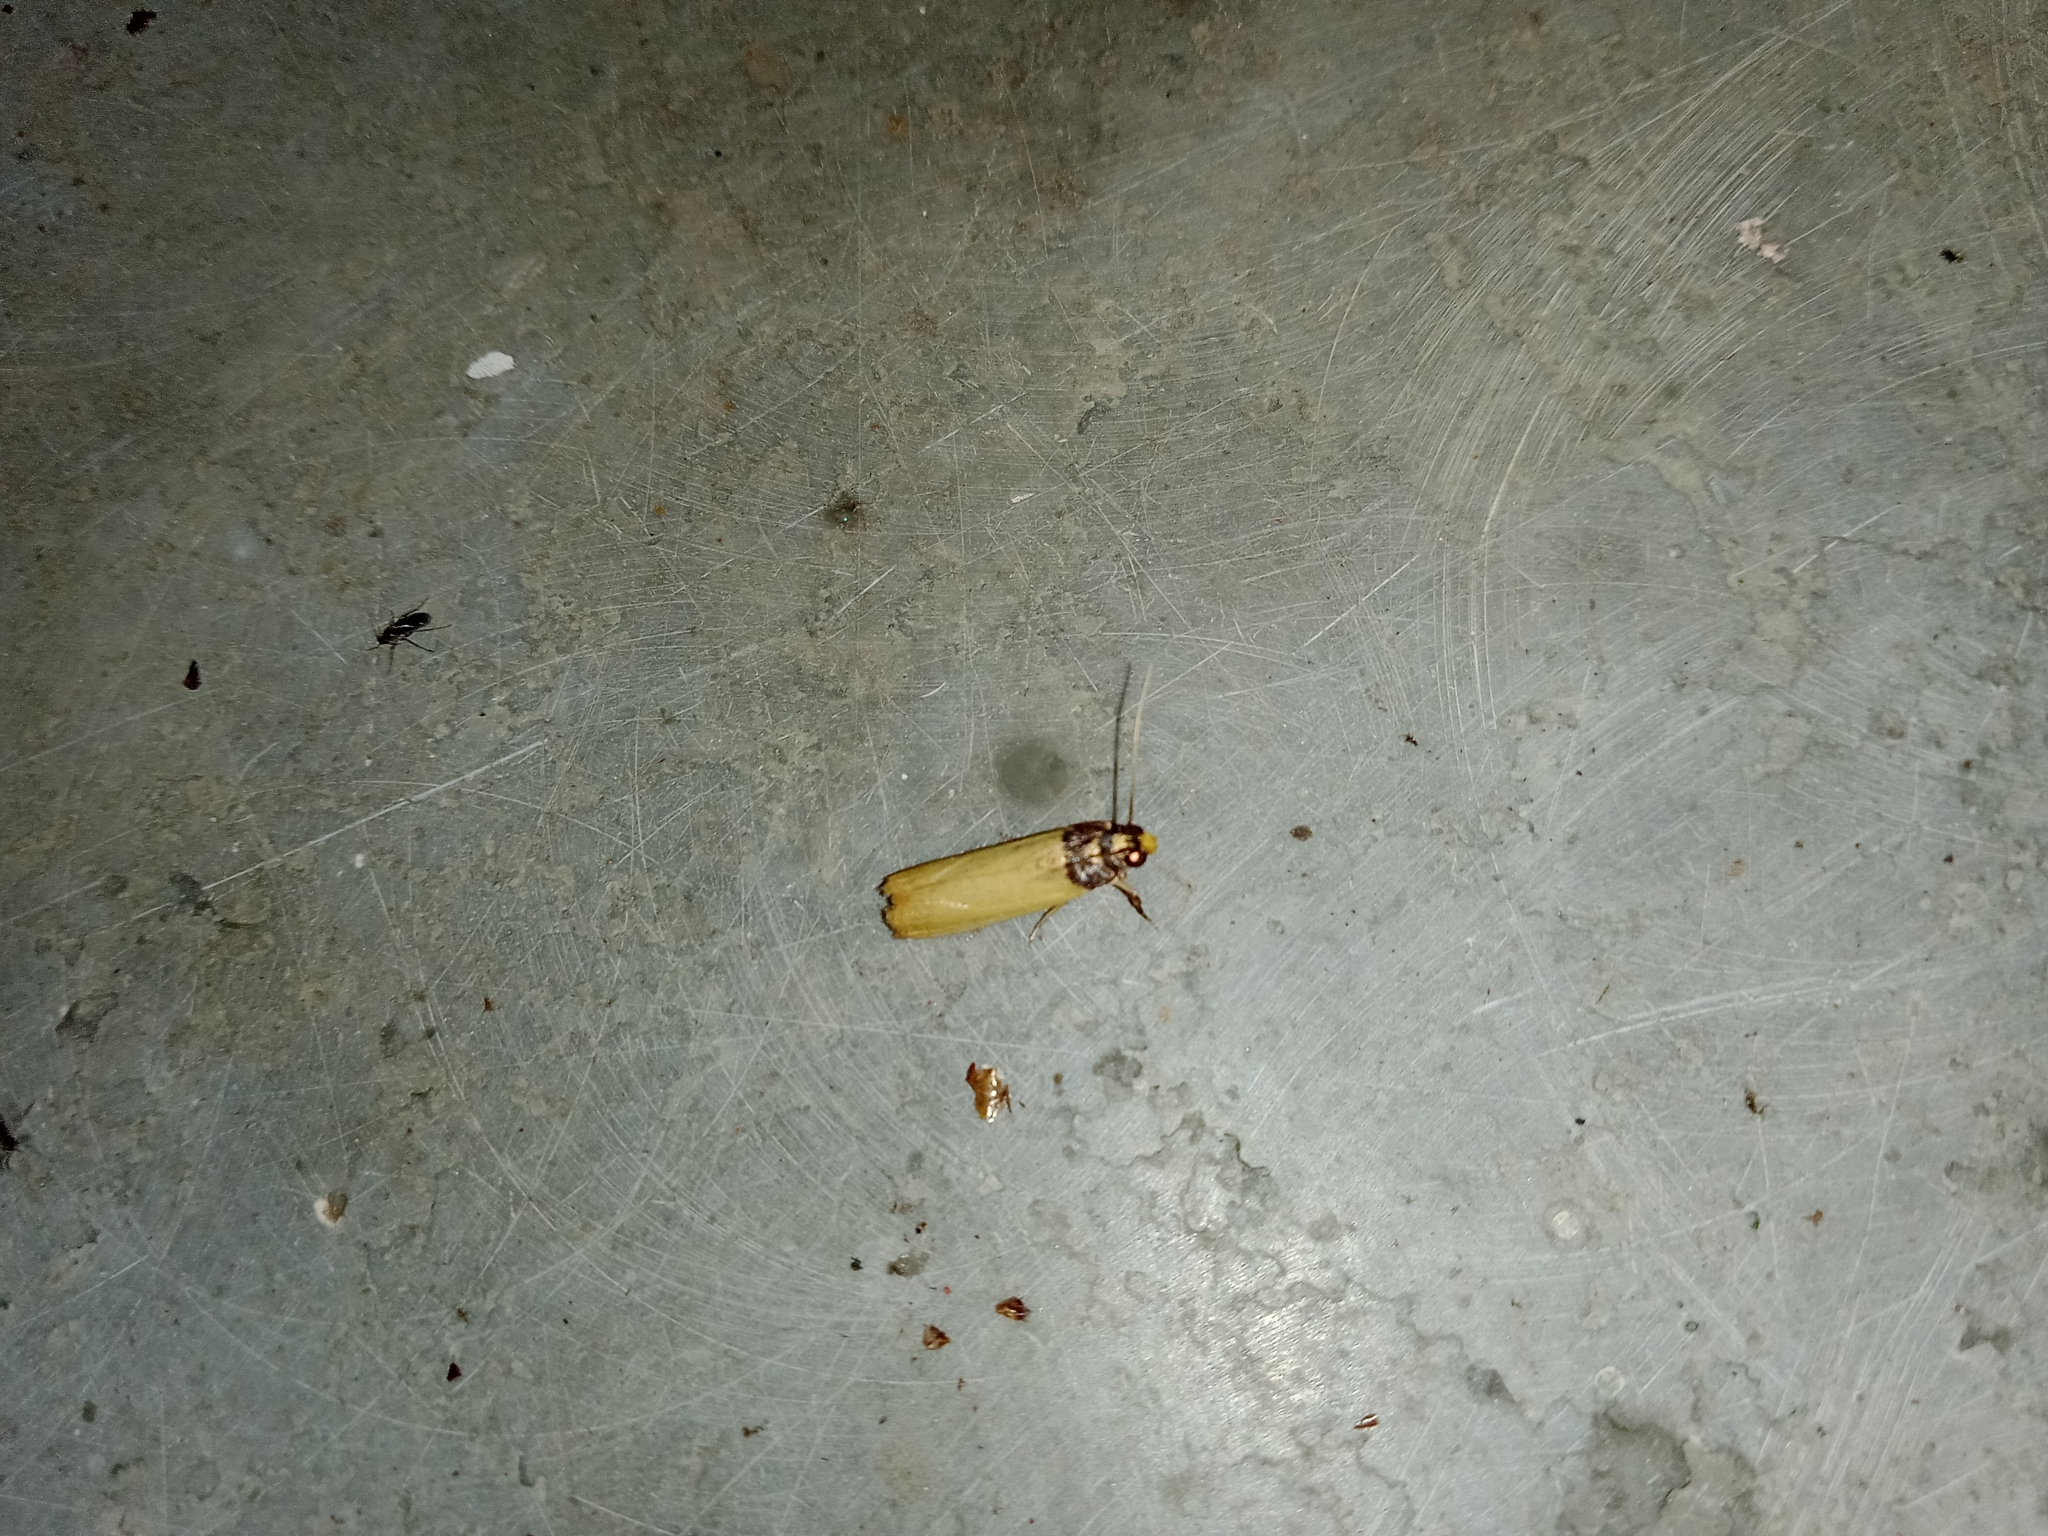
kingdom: Animalia
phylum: Arthropoda
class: Insecta
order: Lepidoptera
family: Pyralidae
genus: Volobilis
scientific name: Volobilis chloropterella
